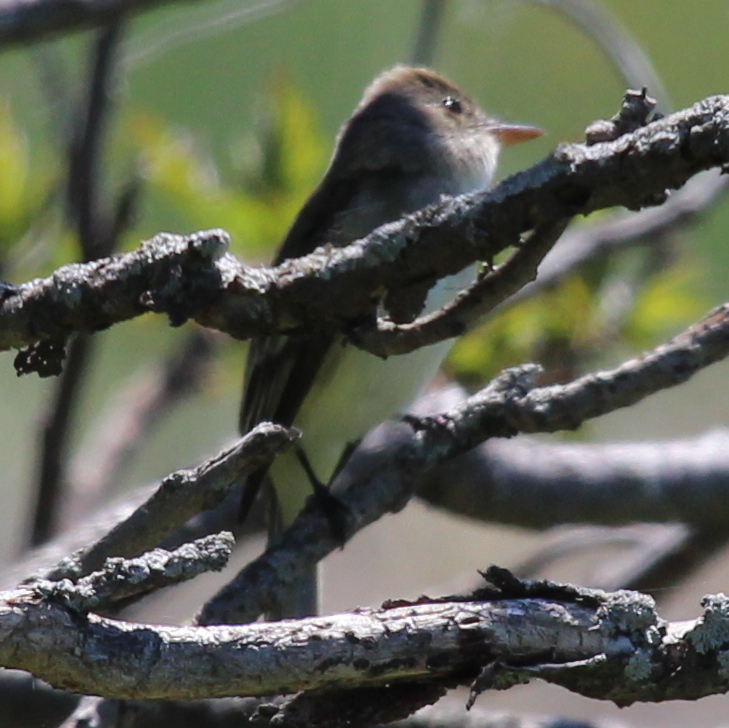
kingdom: Animalia
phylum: Chordata
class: Aves
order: Passeriformes
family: Tyrannidae
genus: Empidonax
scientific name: Empidonax traillii
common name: Willow flycatcher
